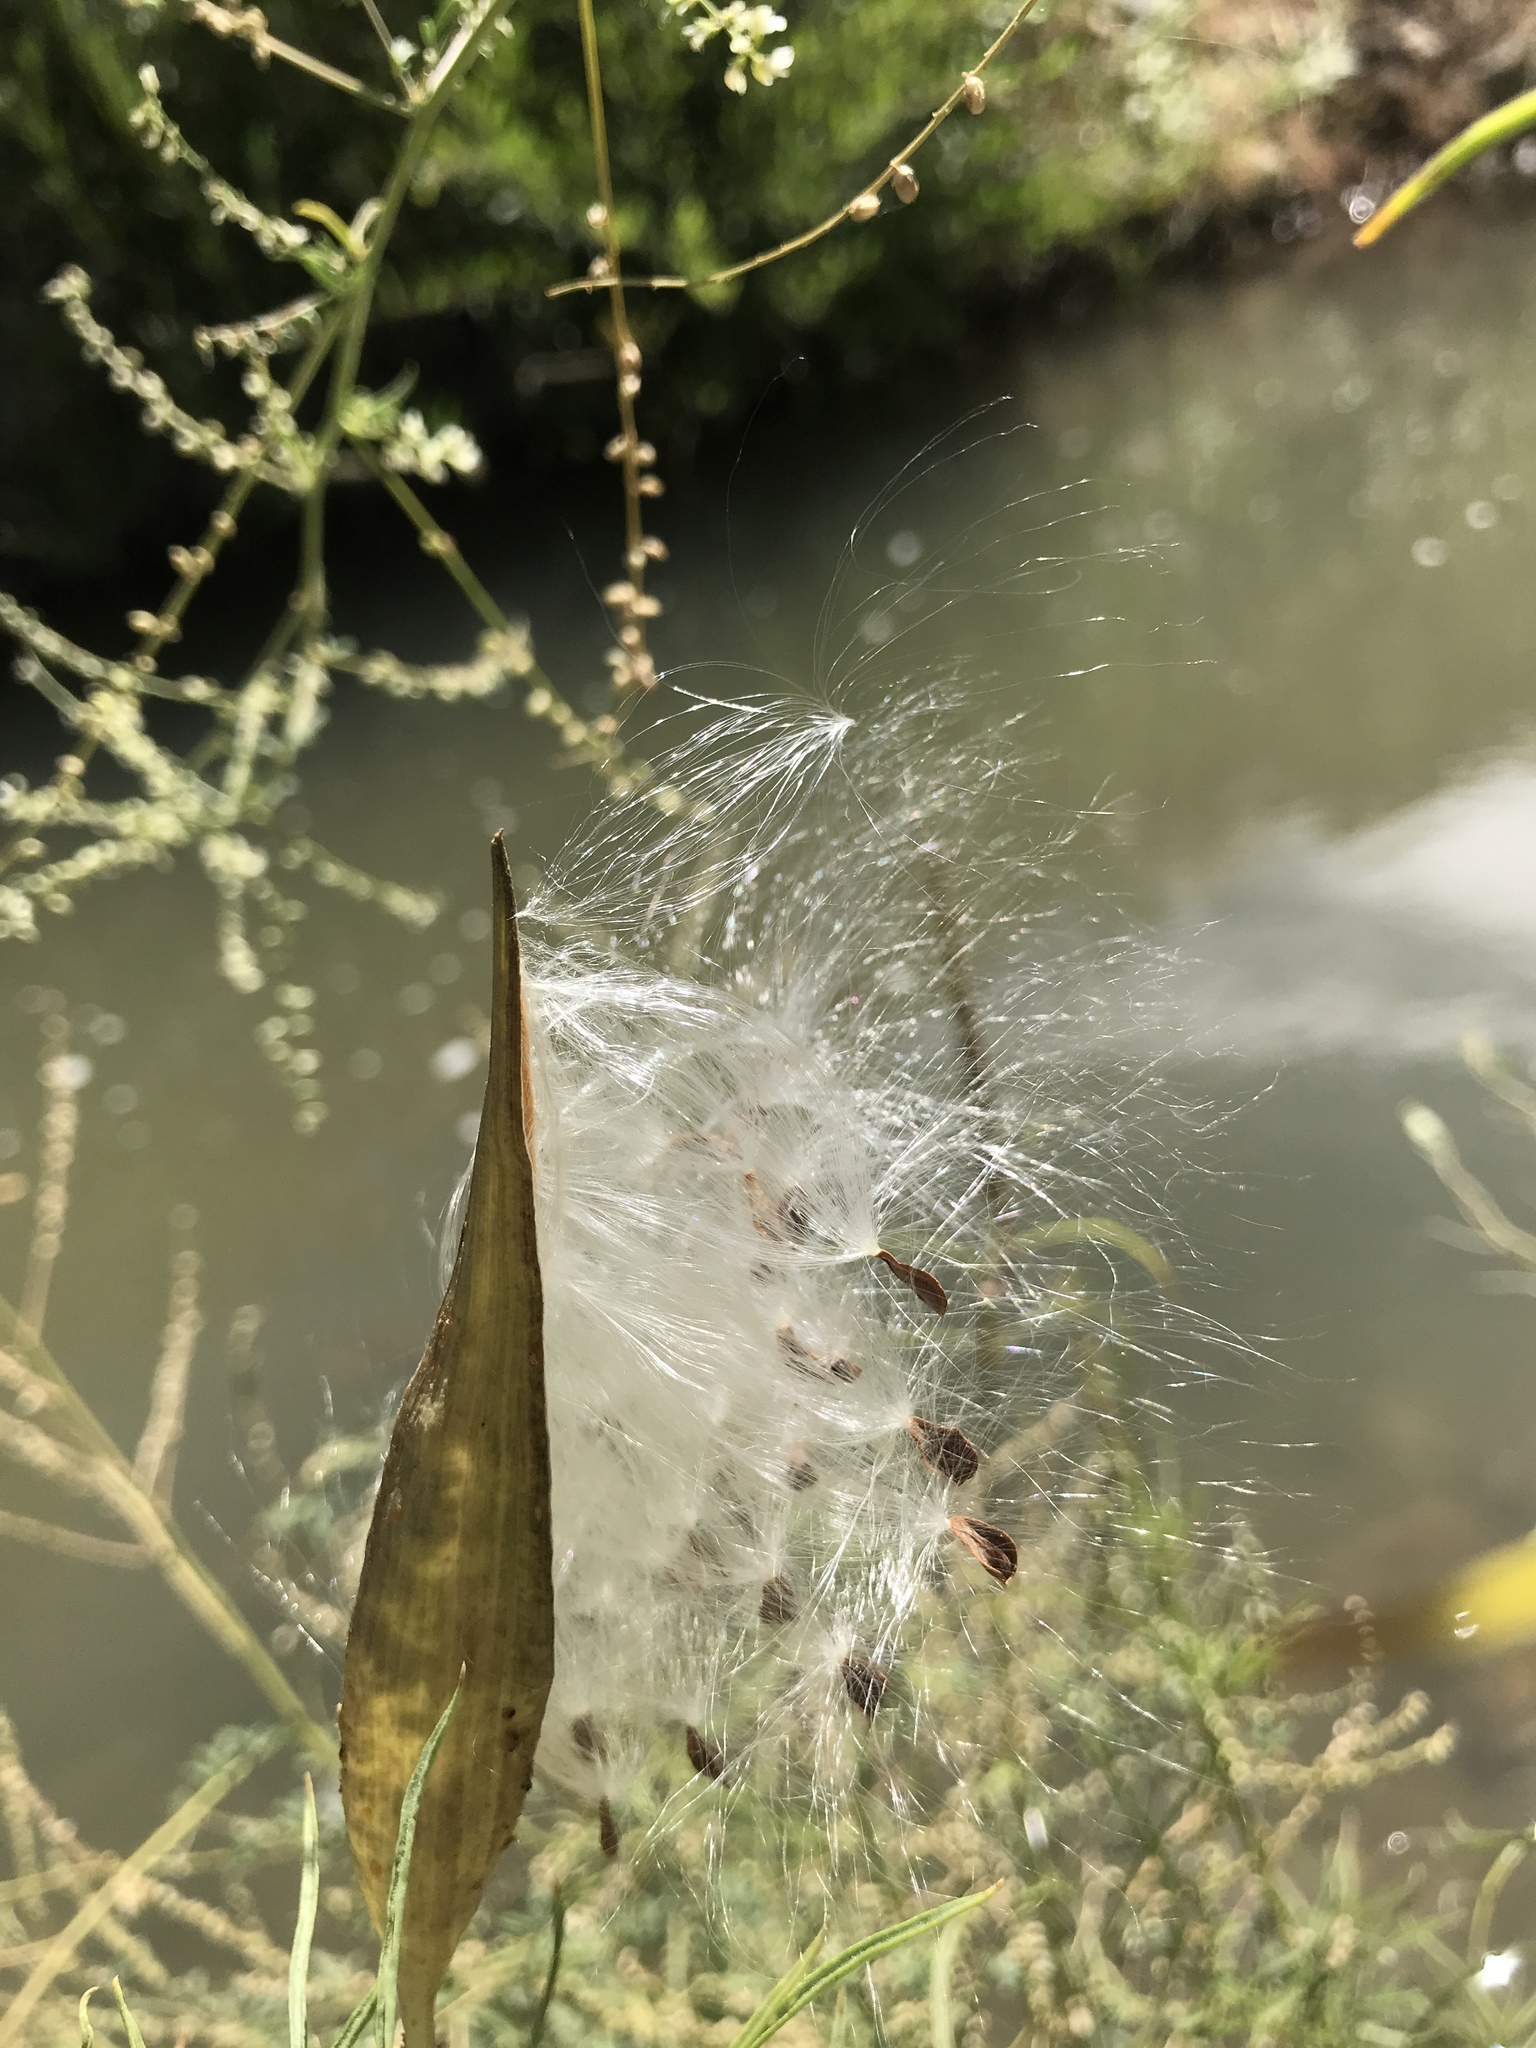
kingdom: Plantae
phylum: Tracheophyta
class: Magnoliopsida
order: Gentianales
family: Apocynaceae
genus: Asclepias
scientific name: Asclepias fascicularis
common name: Mexican milkweed
